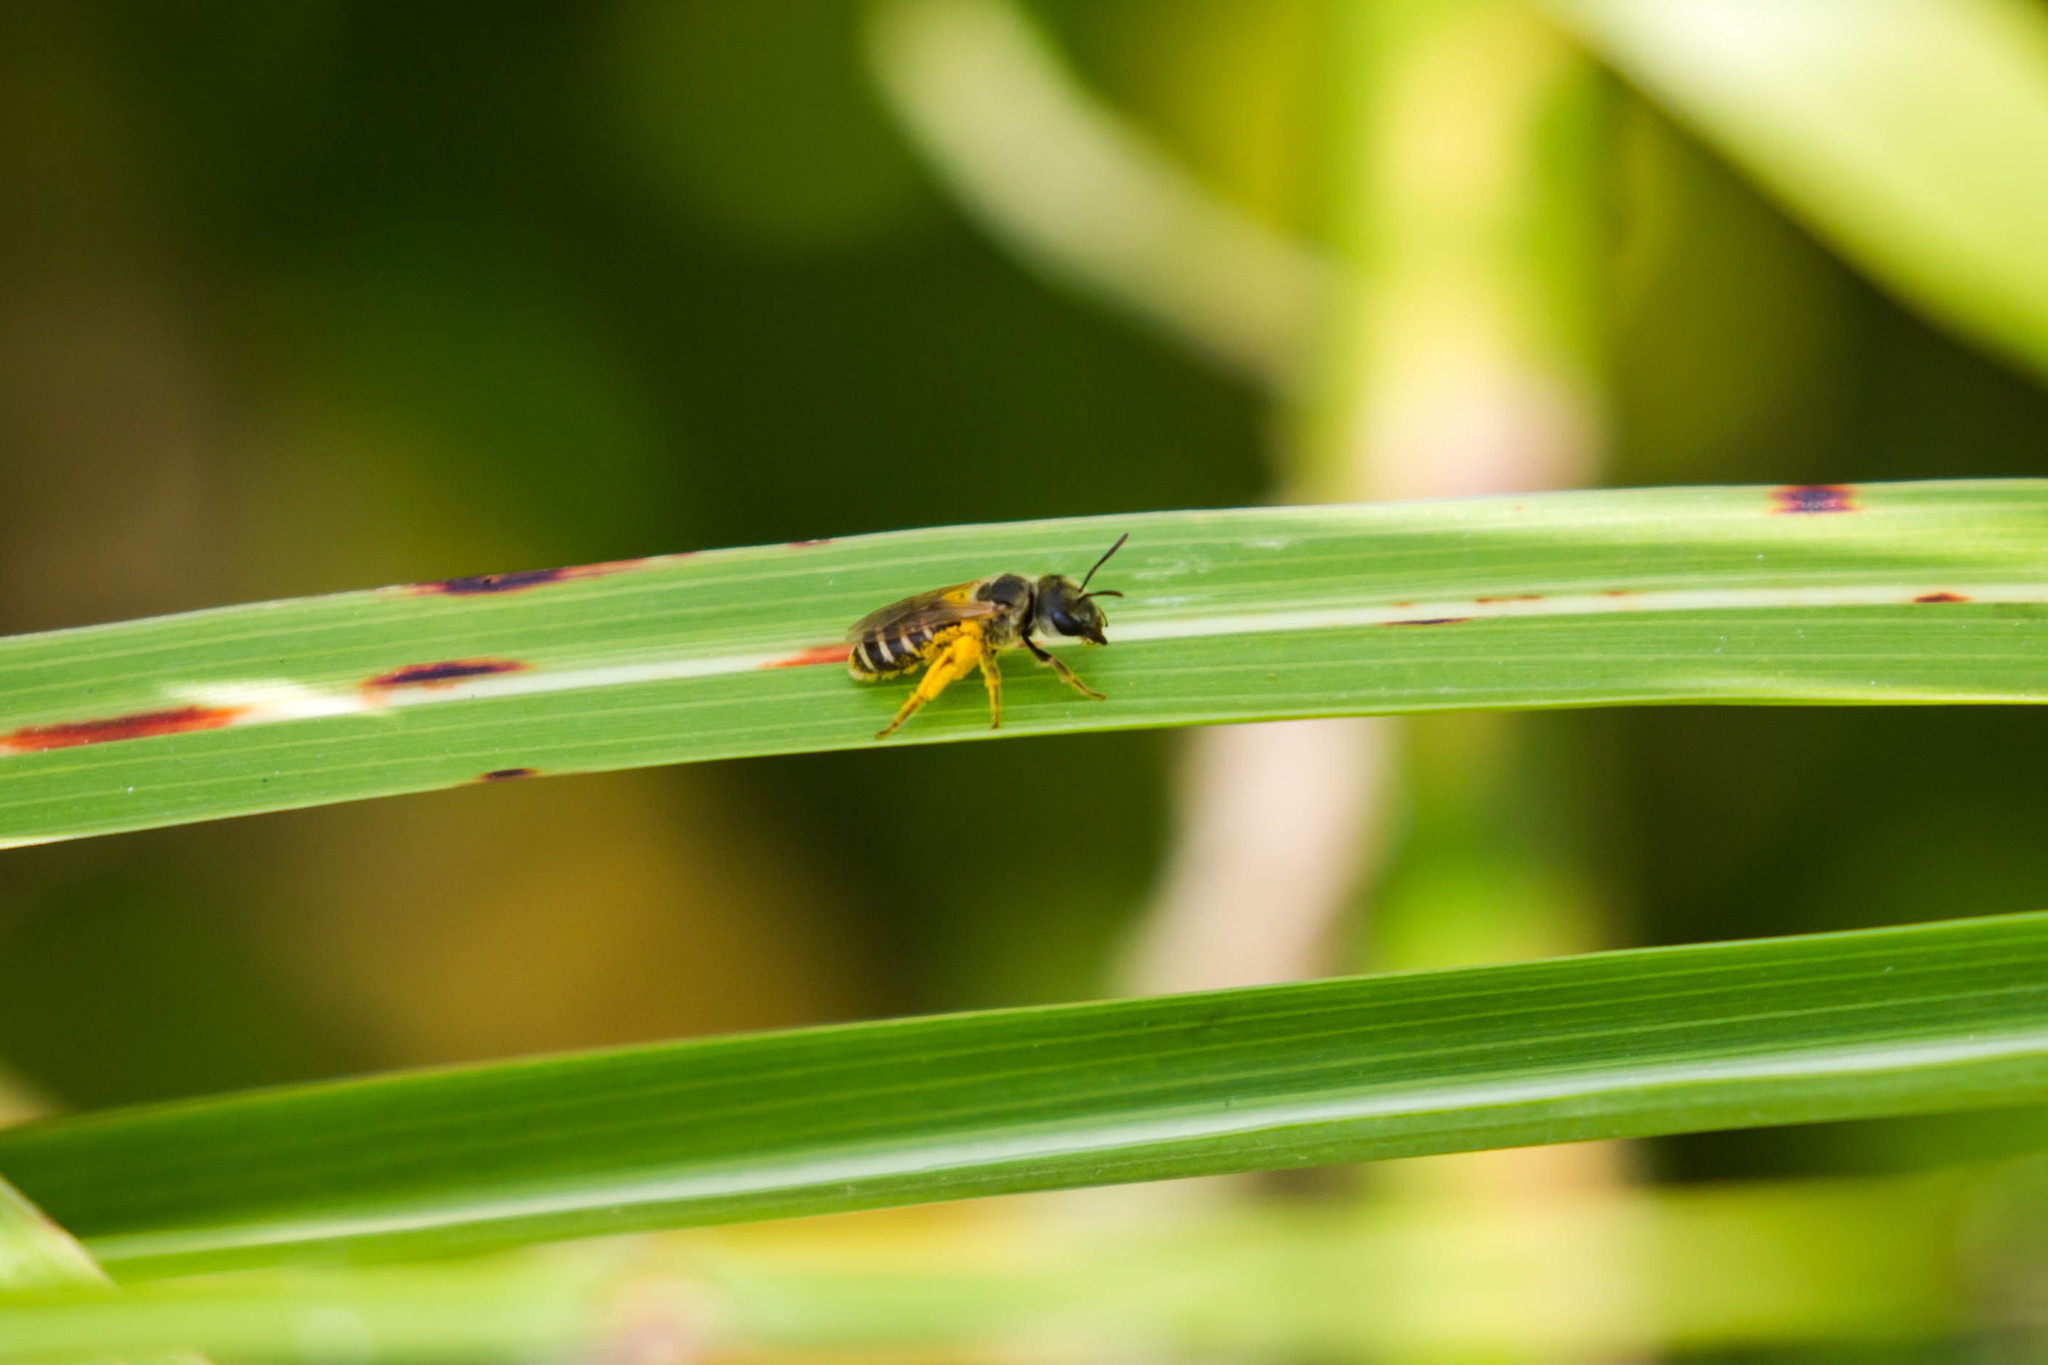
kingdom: Animalia
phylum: Arthropoda
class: Insecta
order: Hymenoptera
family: Halictidae
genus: Halictus
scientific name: Halictus ligatus
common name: Ligated furrow bee
